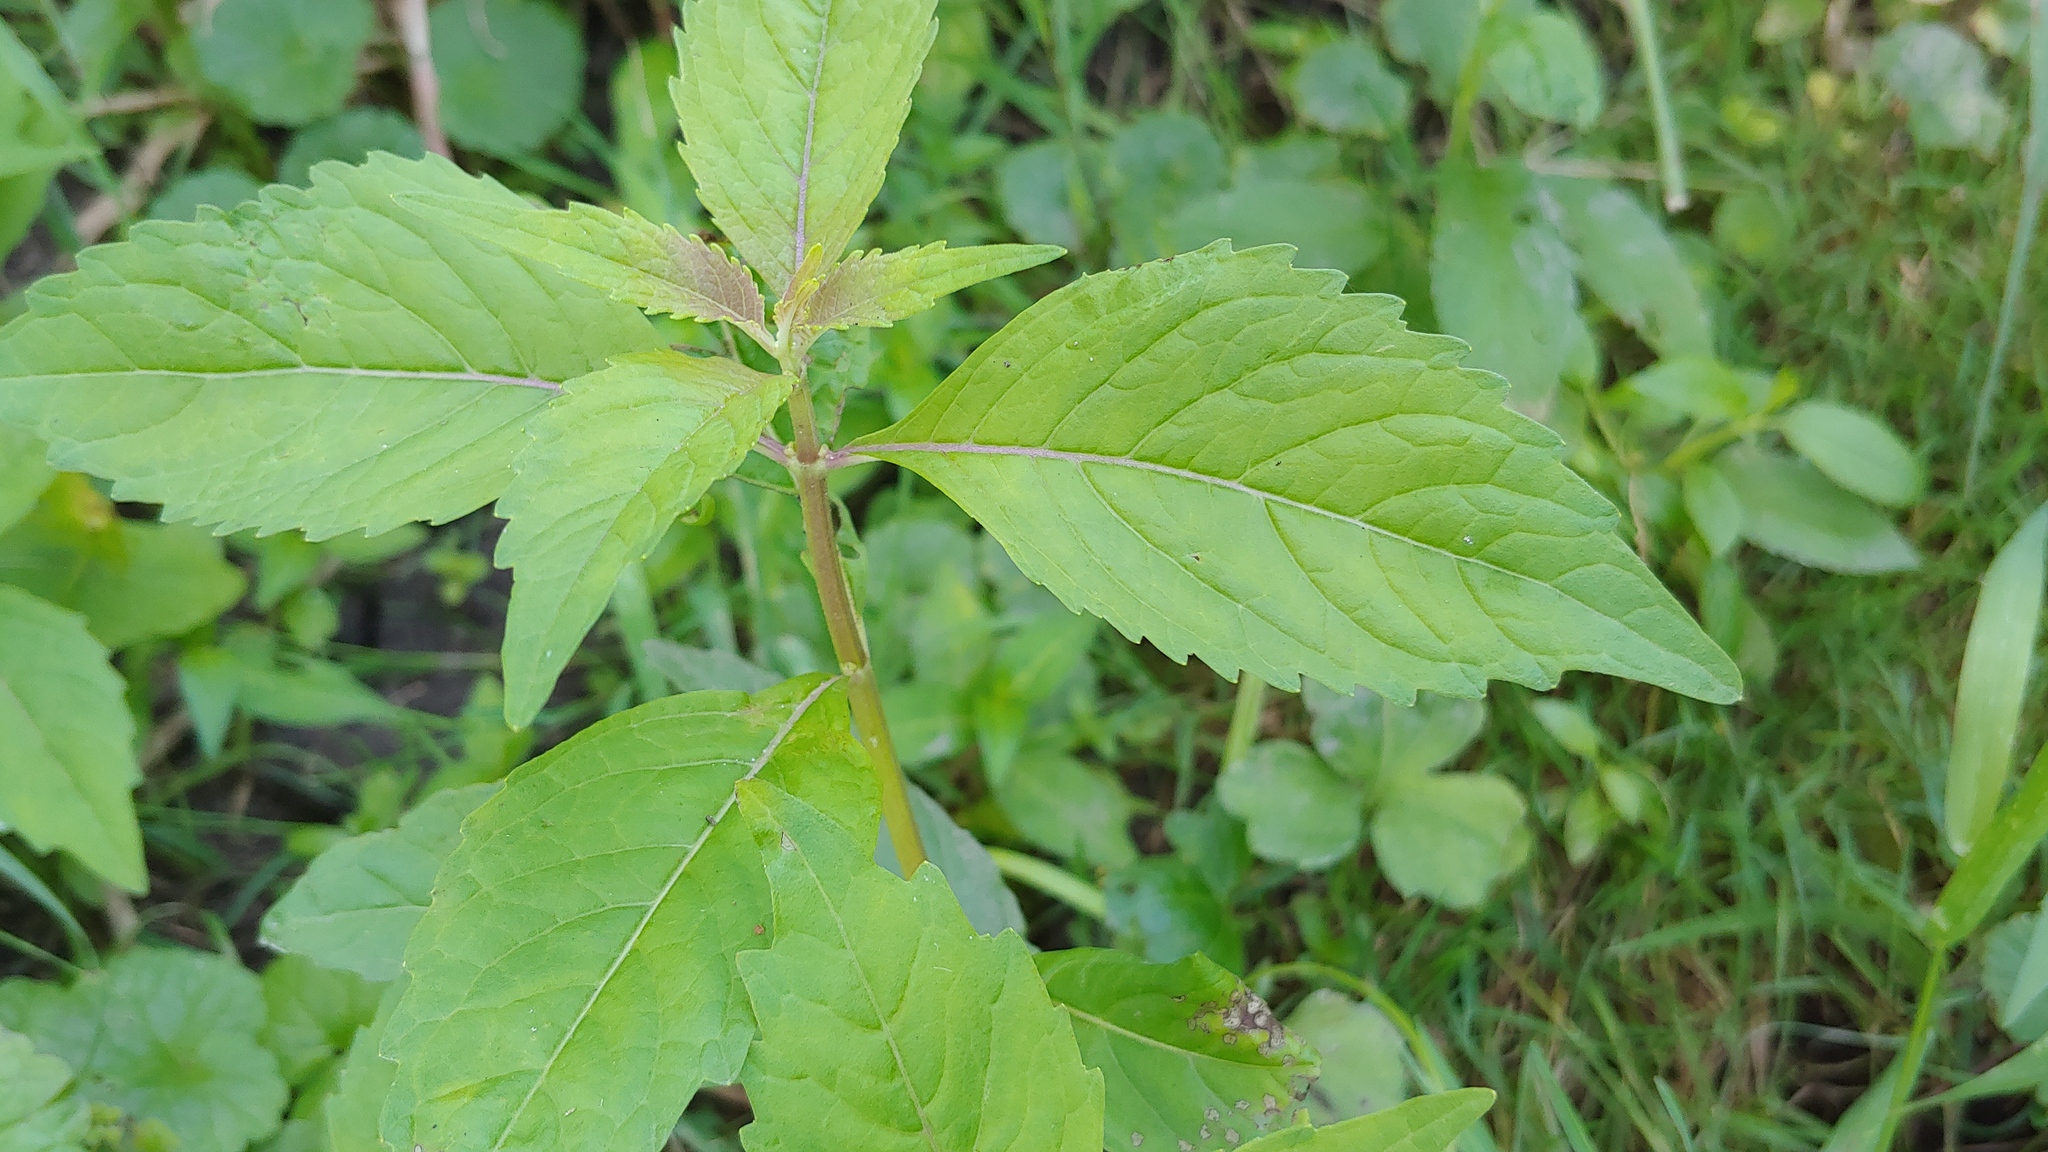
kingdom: Plantae
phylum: Tracheophyta
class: Magnoliopsida
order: Lamiales
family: Lamiaceae
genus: Lycopus
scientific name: Lycopus virginicus
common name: Bugleweed
